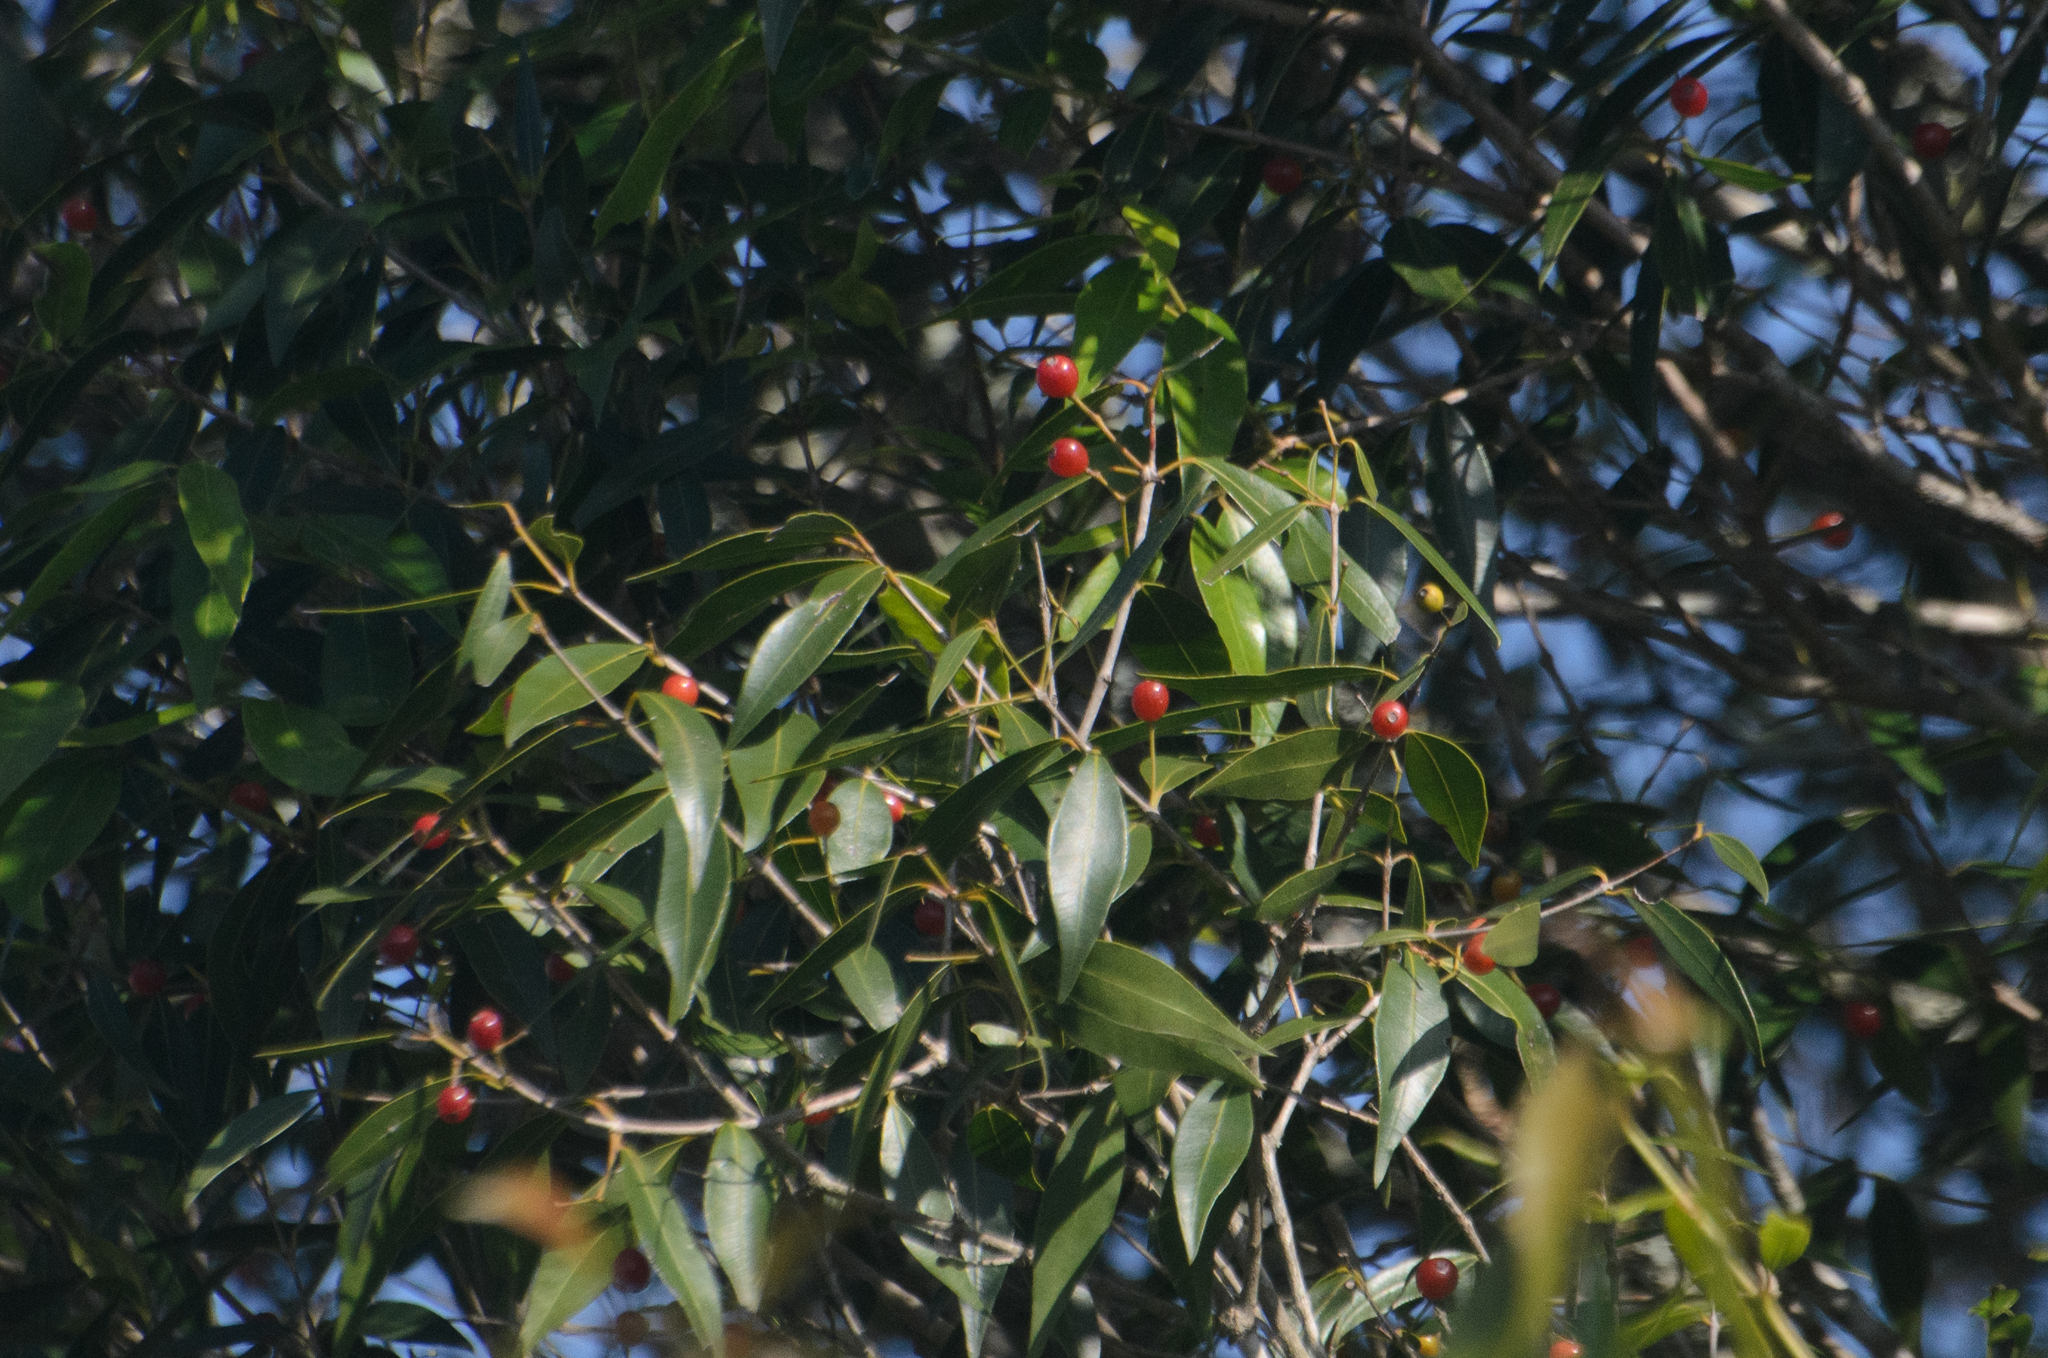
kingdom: Plantae
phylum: Tracheophyta
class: Magnoliopsida
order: Myrtales
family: Myrtaceae
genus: Blepharocalyx
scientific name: Blepharocalyx salicifolius
